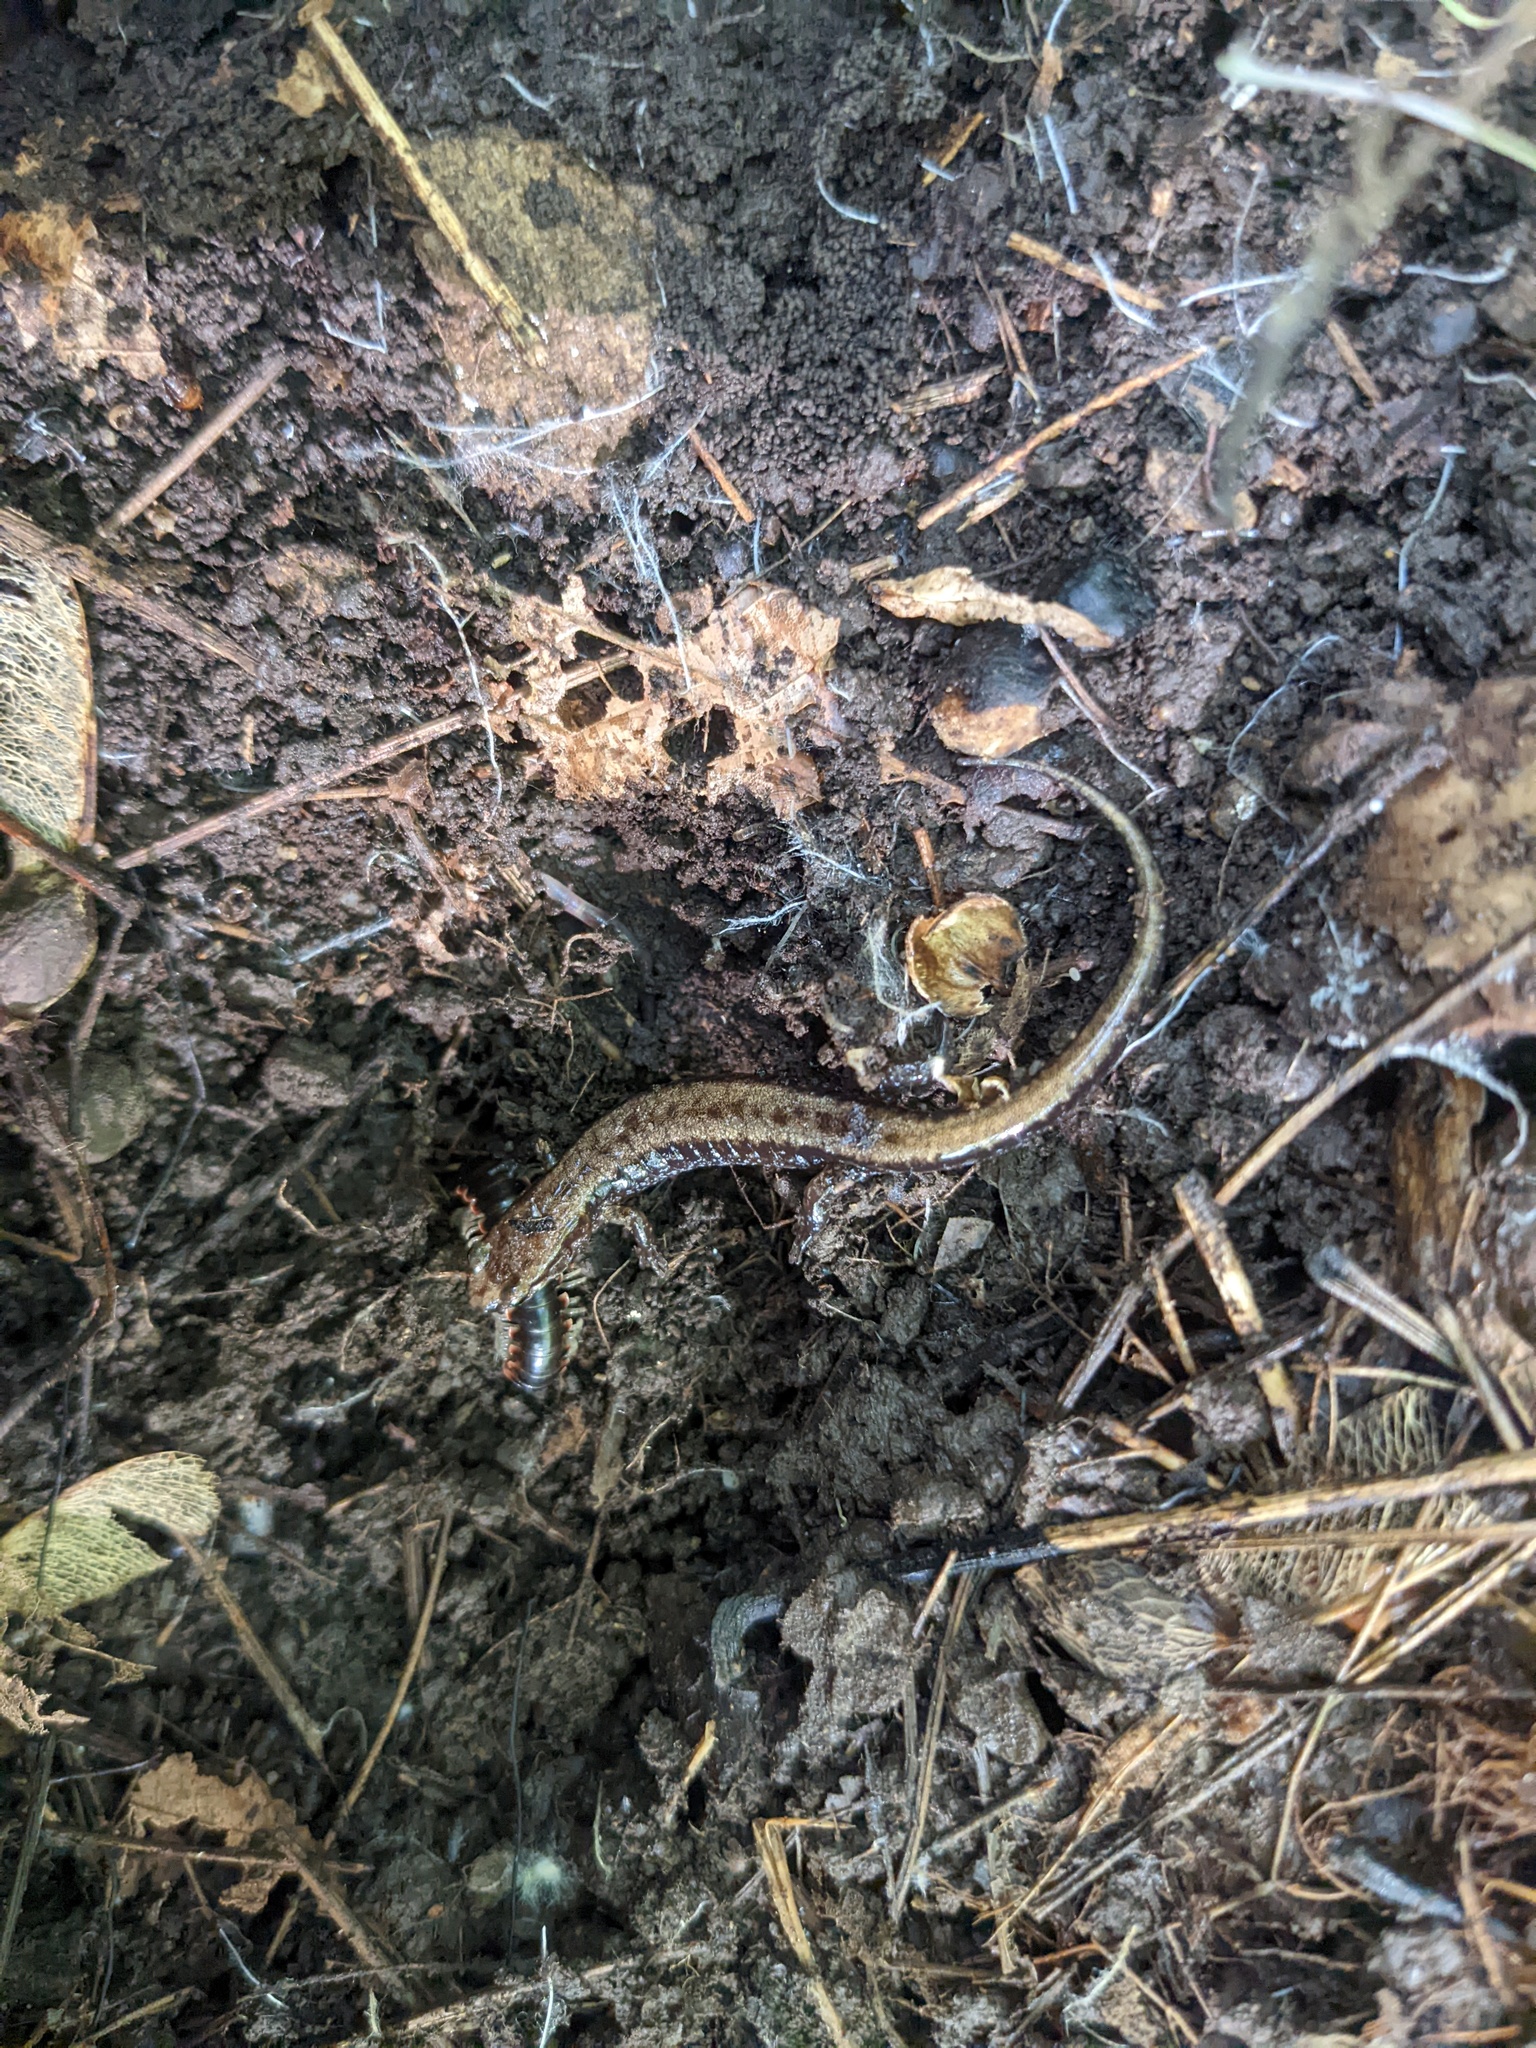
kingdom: Animalia
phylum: Chordata
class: Amphibia
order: Caudata
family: Plethodontidae
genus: Desmognathus
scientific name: Desmognathus ochrophaeus
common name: Allegheny mountain dusky salamander
